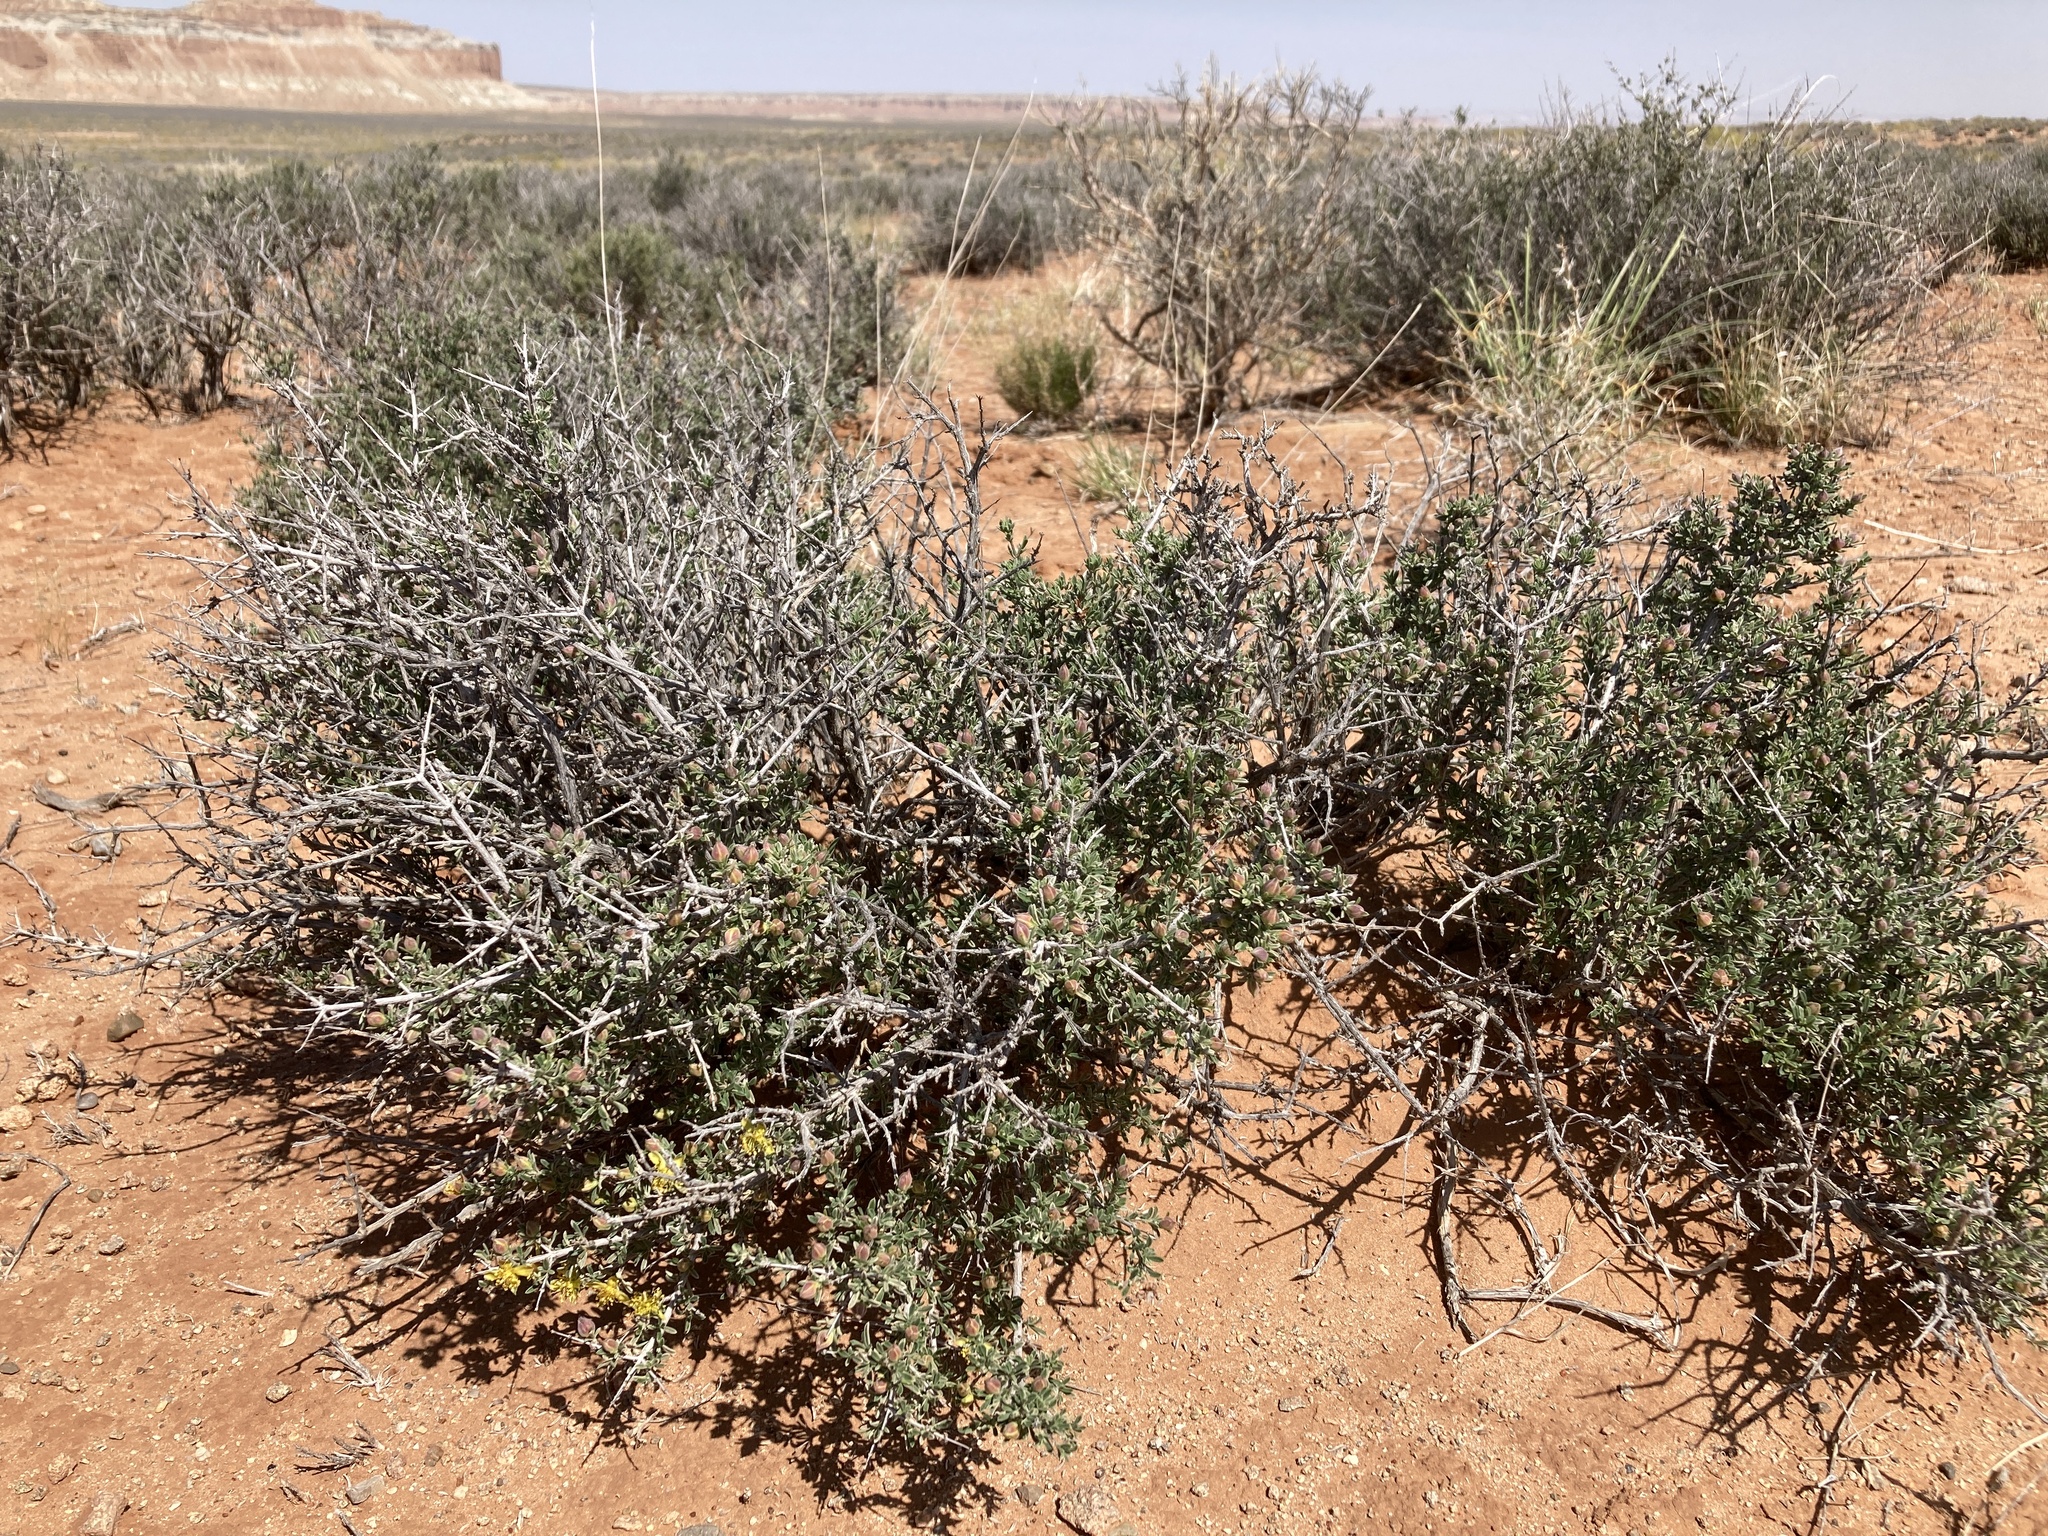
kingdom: Plantae
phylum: Tracheophyta
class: Magnoliopsida
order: Rosales
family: Rosaceae
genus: Coleogyne
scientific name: Coleogyne ramosissima
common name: Blackbrush
